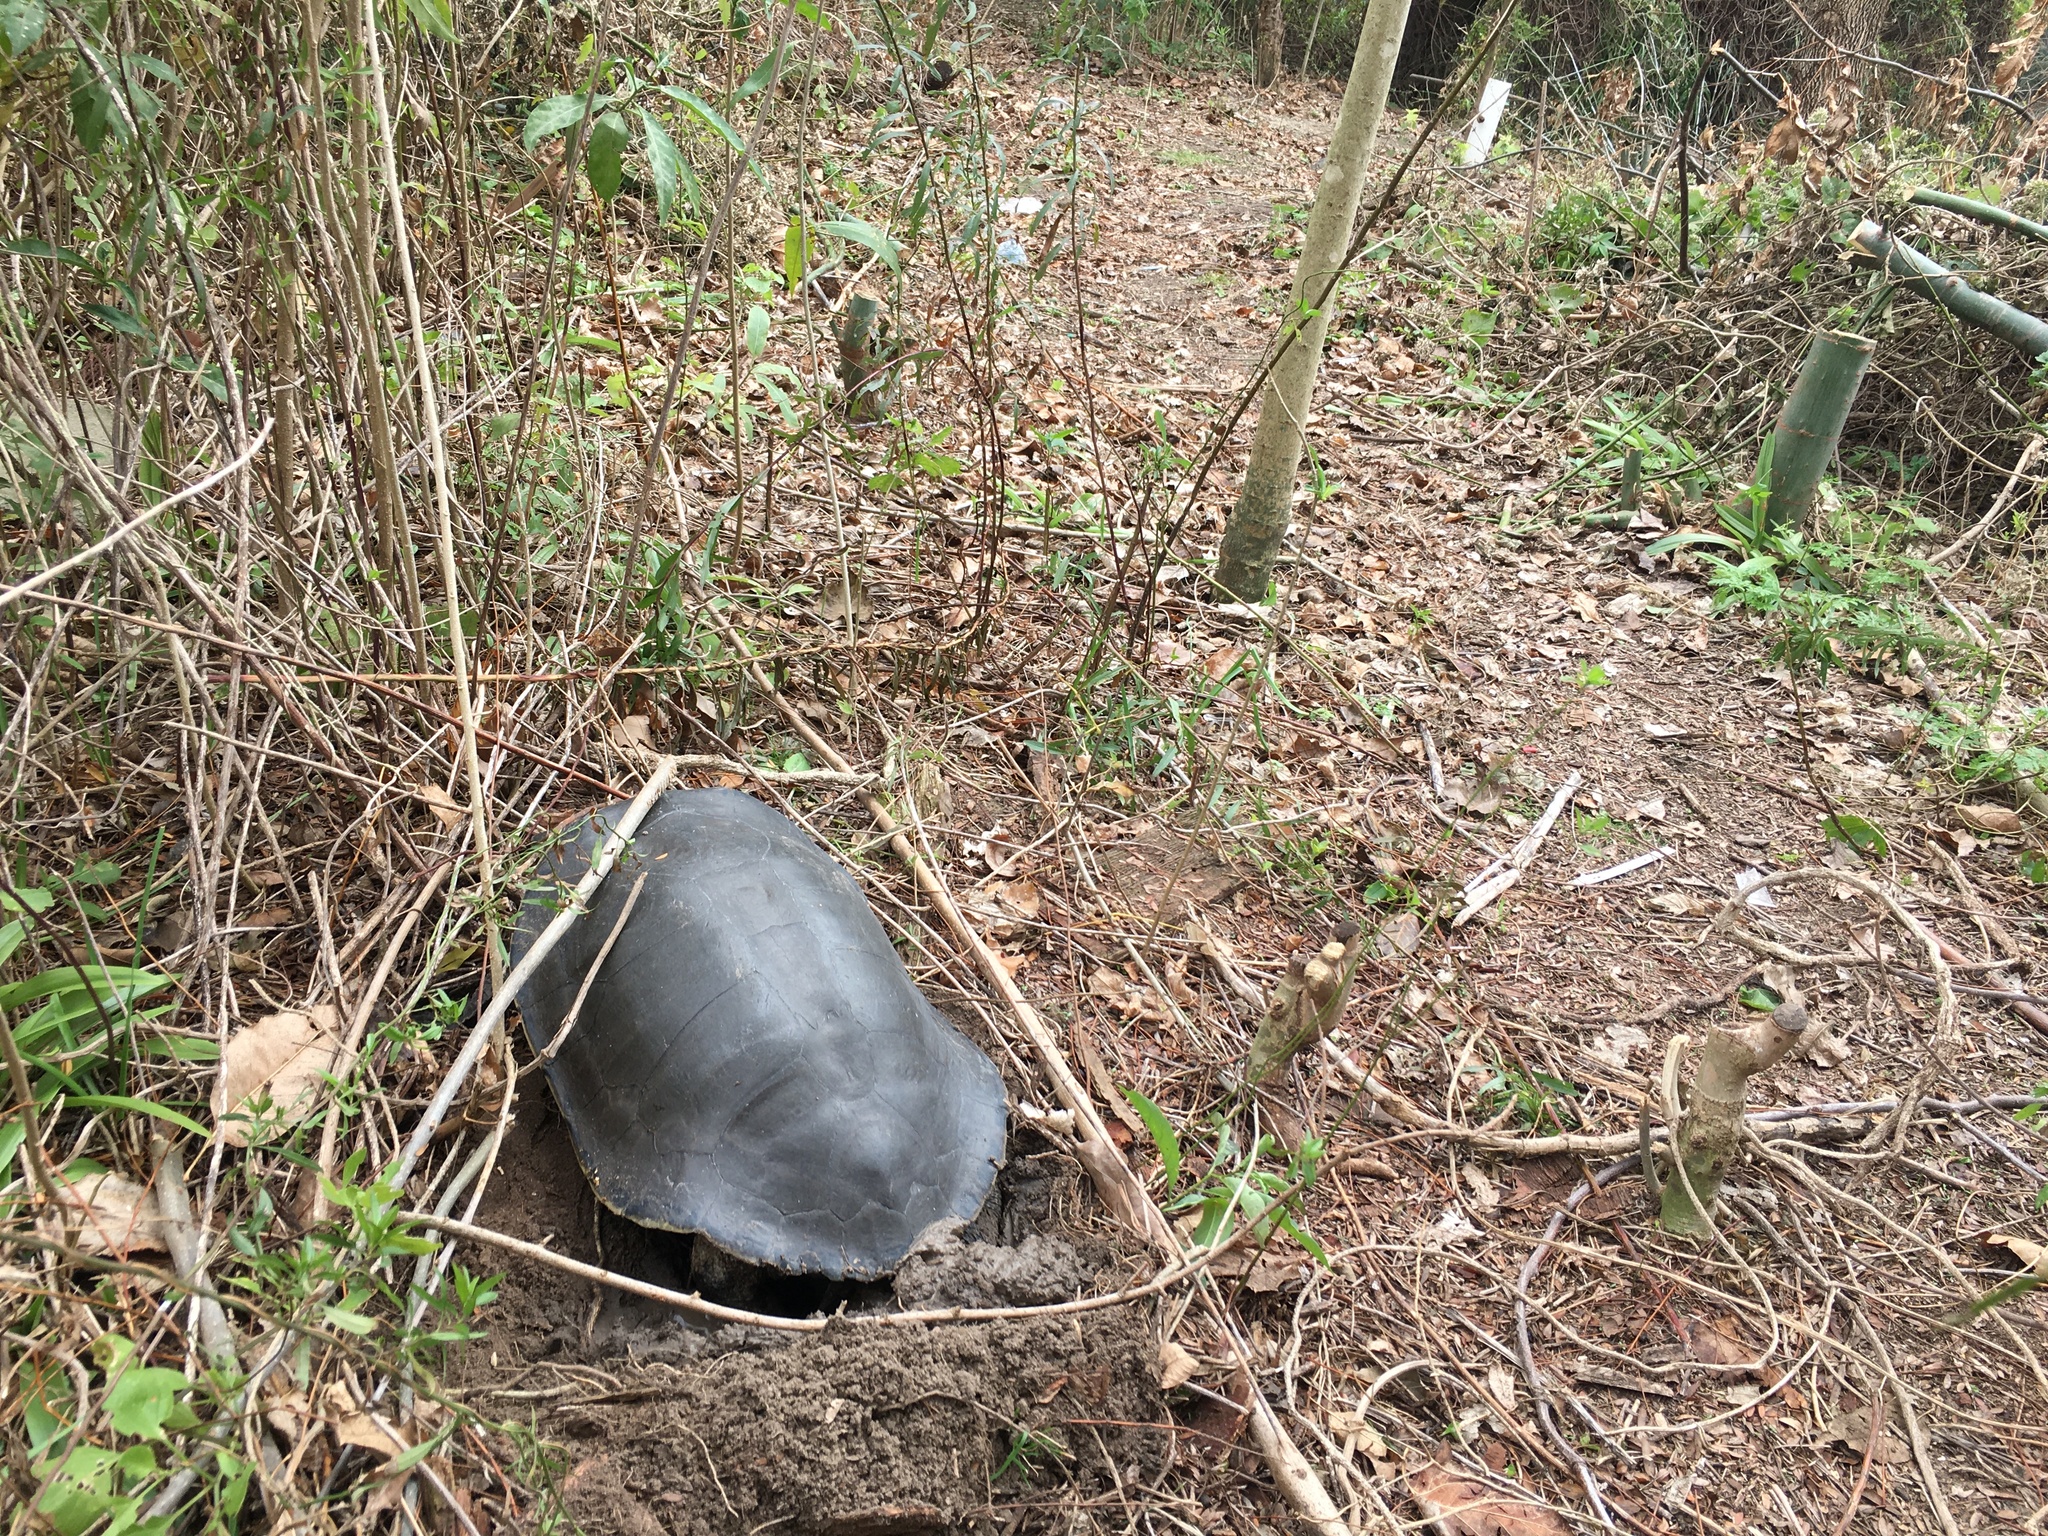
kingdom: Animalia
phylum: Chordata
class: Testudines
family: Chelidae
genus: Phrynops
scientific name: Phrynops hilarii
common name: Side-necked turtle of saint hillaire
